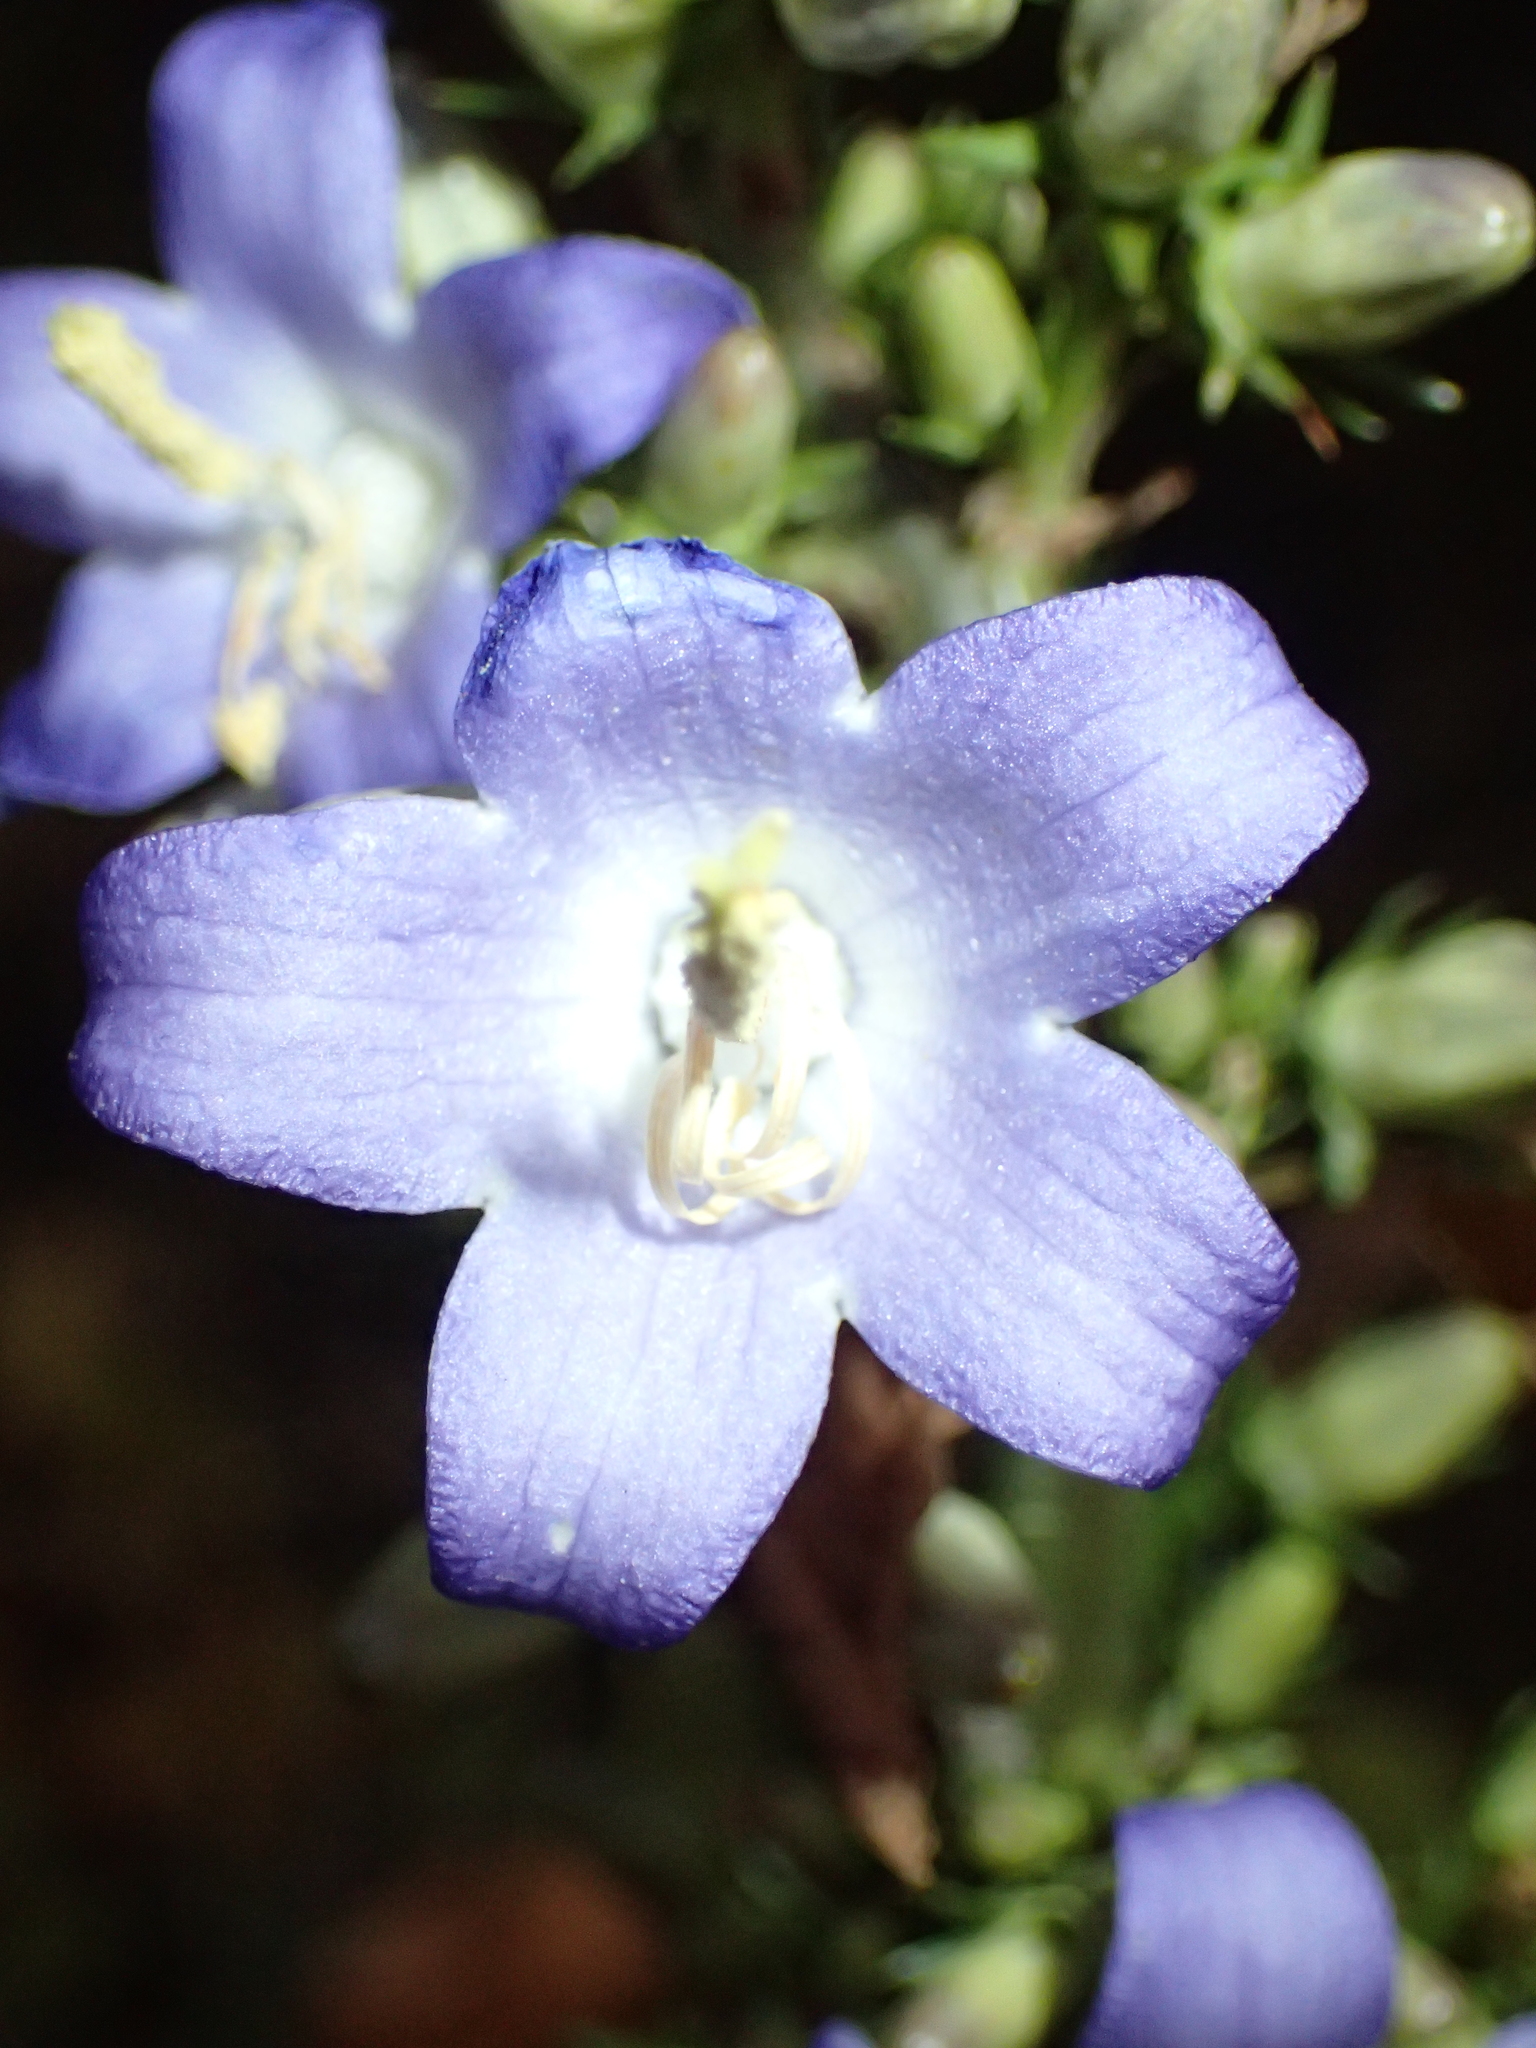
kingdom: Plantae
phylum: Tracheophyta
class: Magnoliopsida
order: Asterales
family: Campanulaceae
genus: Campanula
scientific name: Campanula pyramidalis
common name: Chimney bellflower
